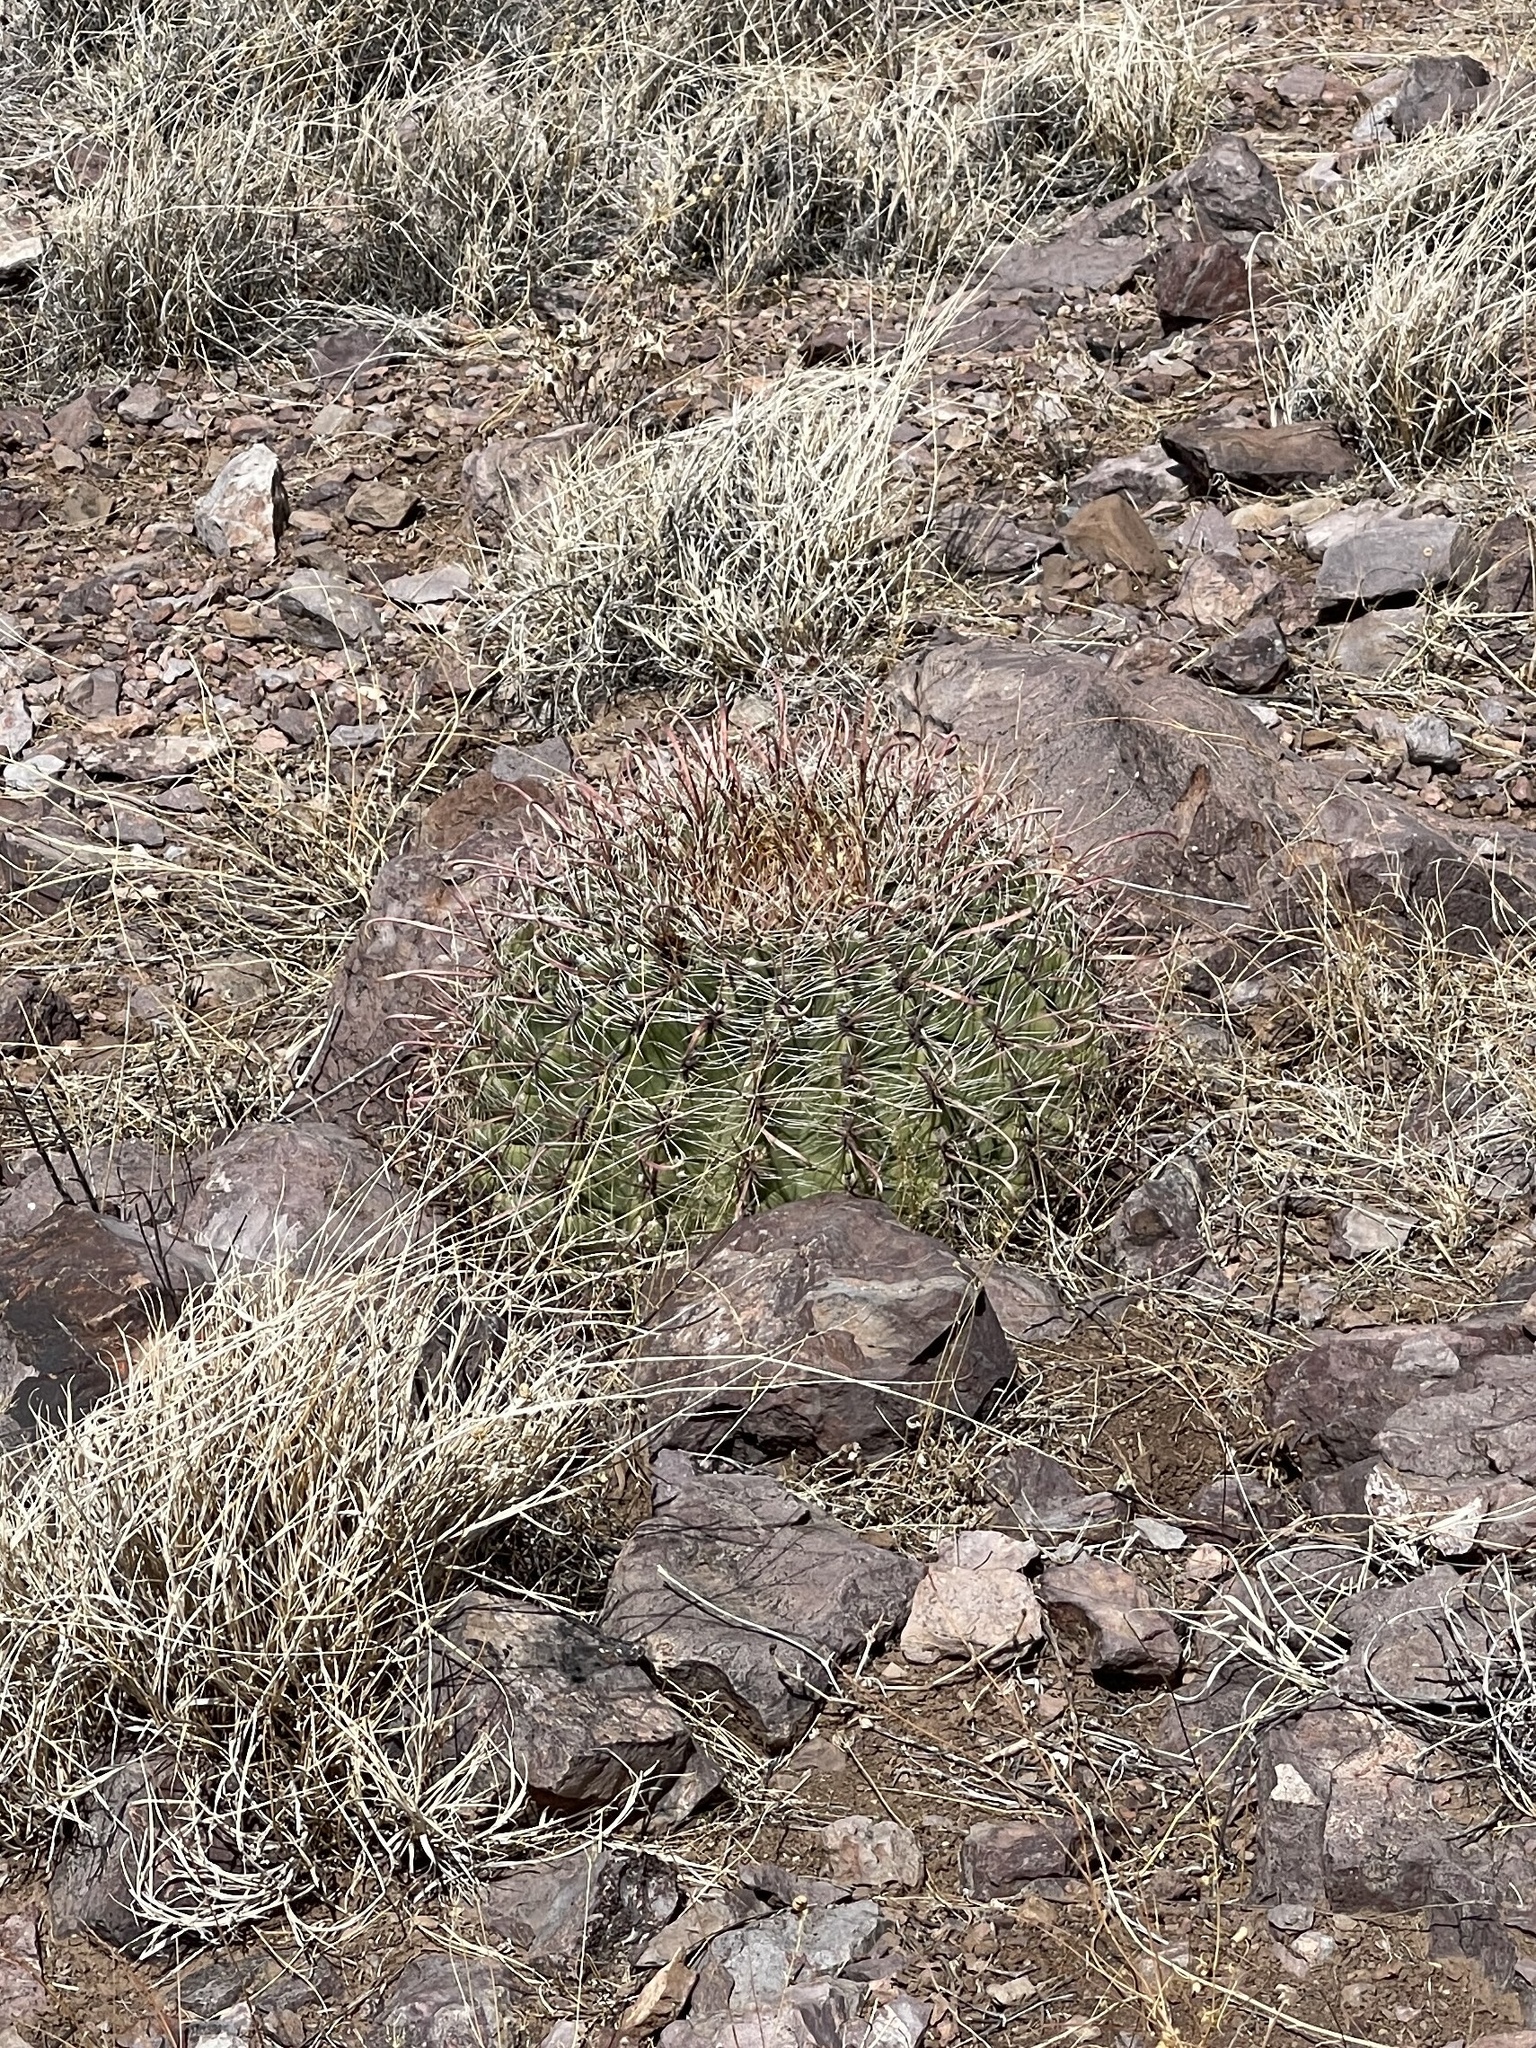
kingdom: Plantae
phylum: Tracheophyta
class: Magnoliopsida
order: Caryophyllales
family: Cactaceae
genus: Ferocactus
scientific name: Ferocactus wislizeni
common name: Candy barrel cactus
